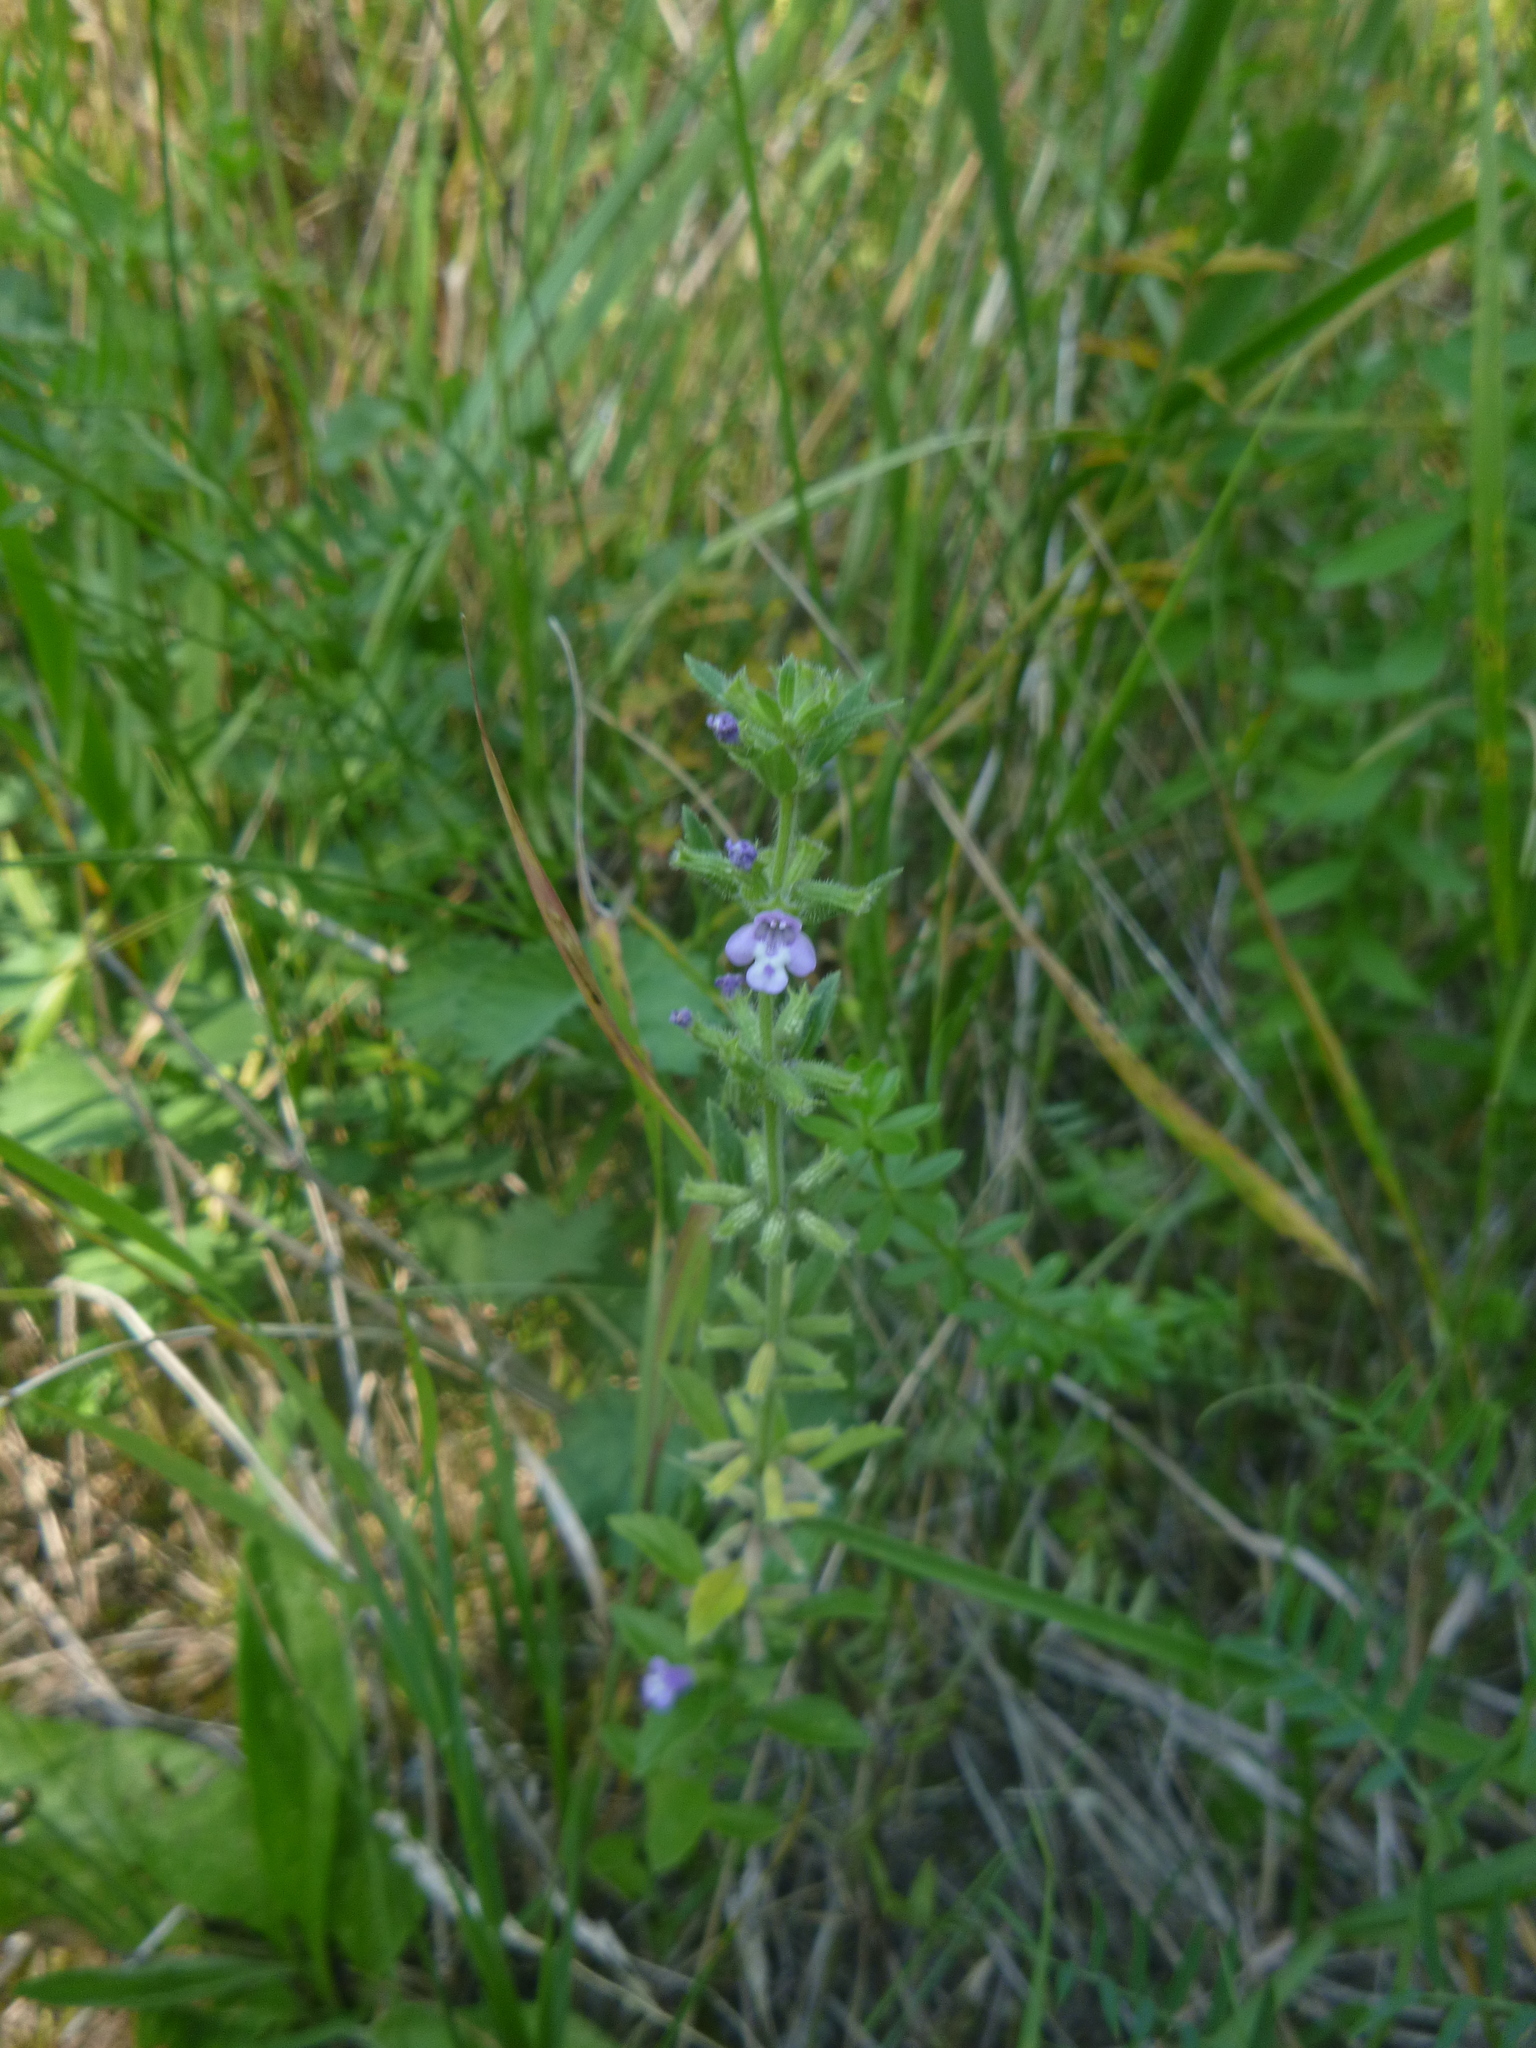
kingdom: Plantae
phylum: Tracheophyta
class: Magnoliopsida
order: Lamiales
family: Lamiaceae
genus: Clinopodium
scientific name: Clinopodium acinos
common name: Basil thyme
